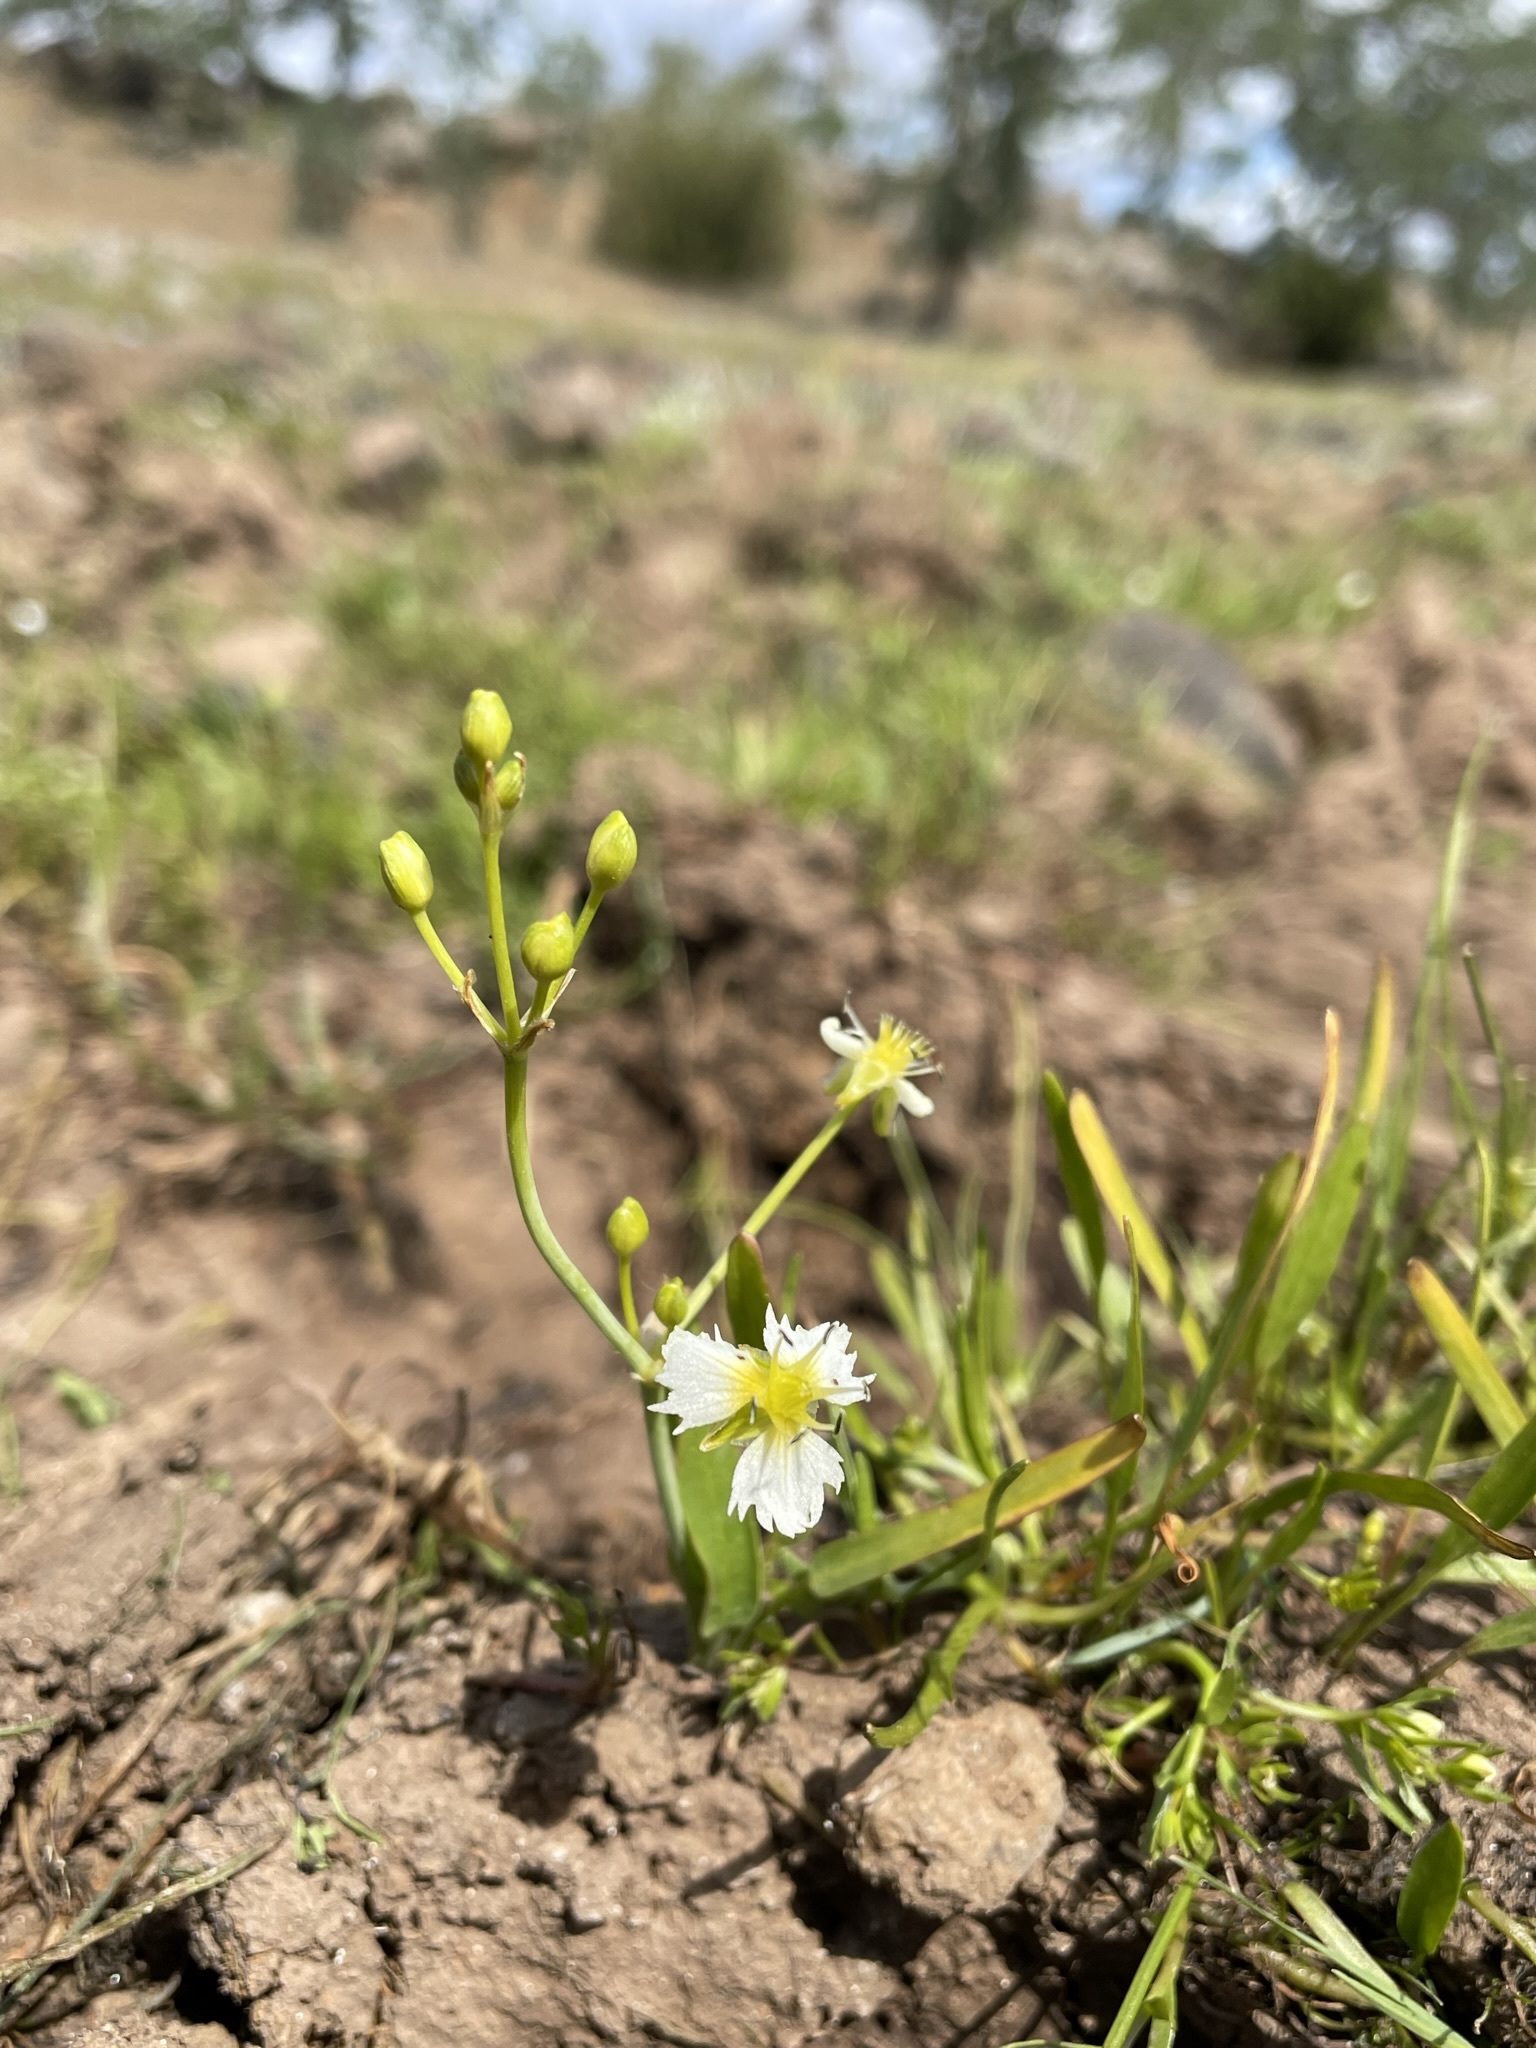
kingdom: Plantae
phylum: Tracheophyta
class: Liliopsida
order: Alismatales
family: Alismataceae
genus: Damasonium
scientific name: Damasonium californicum
